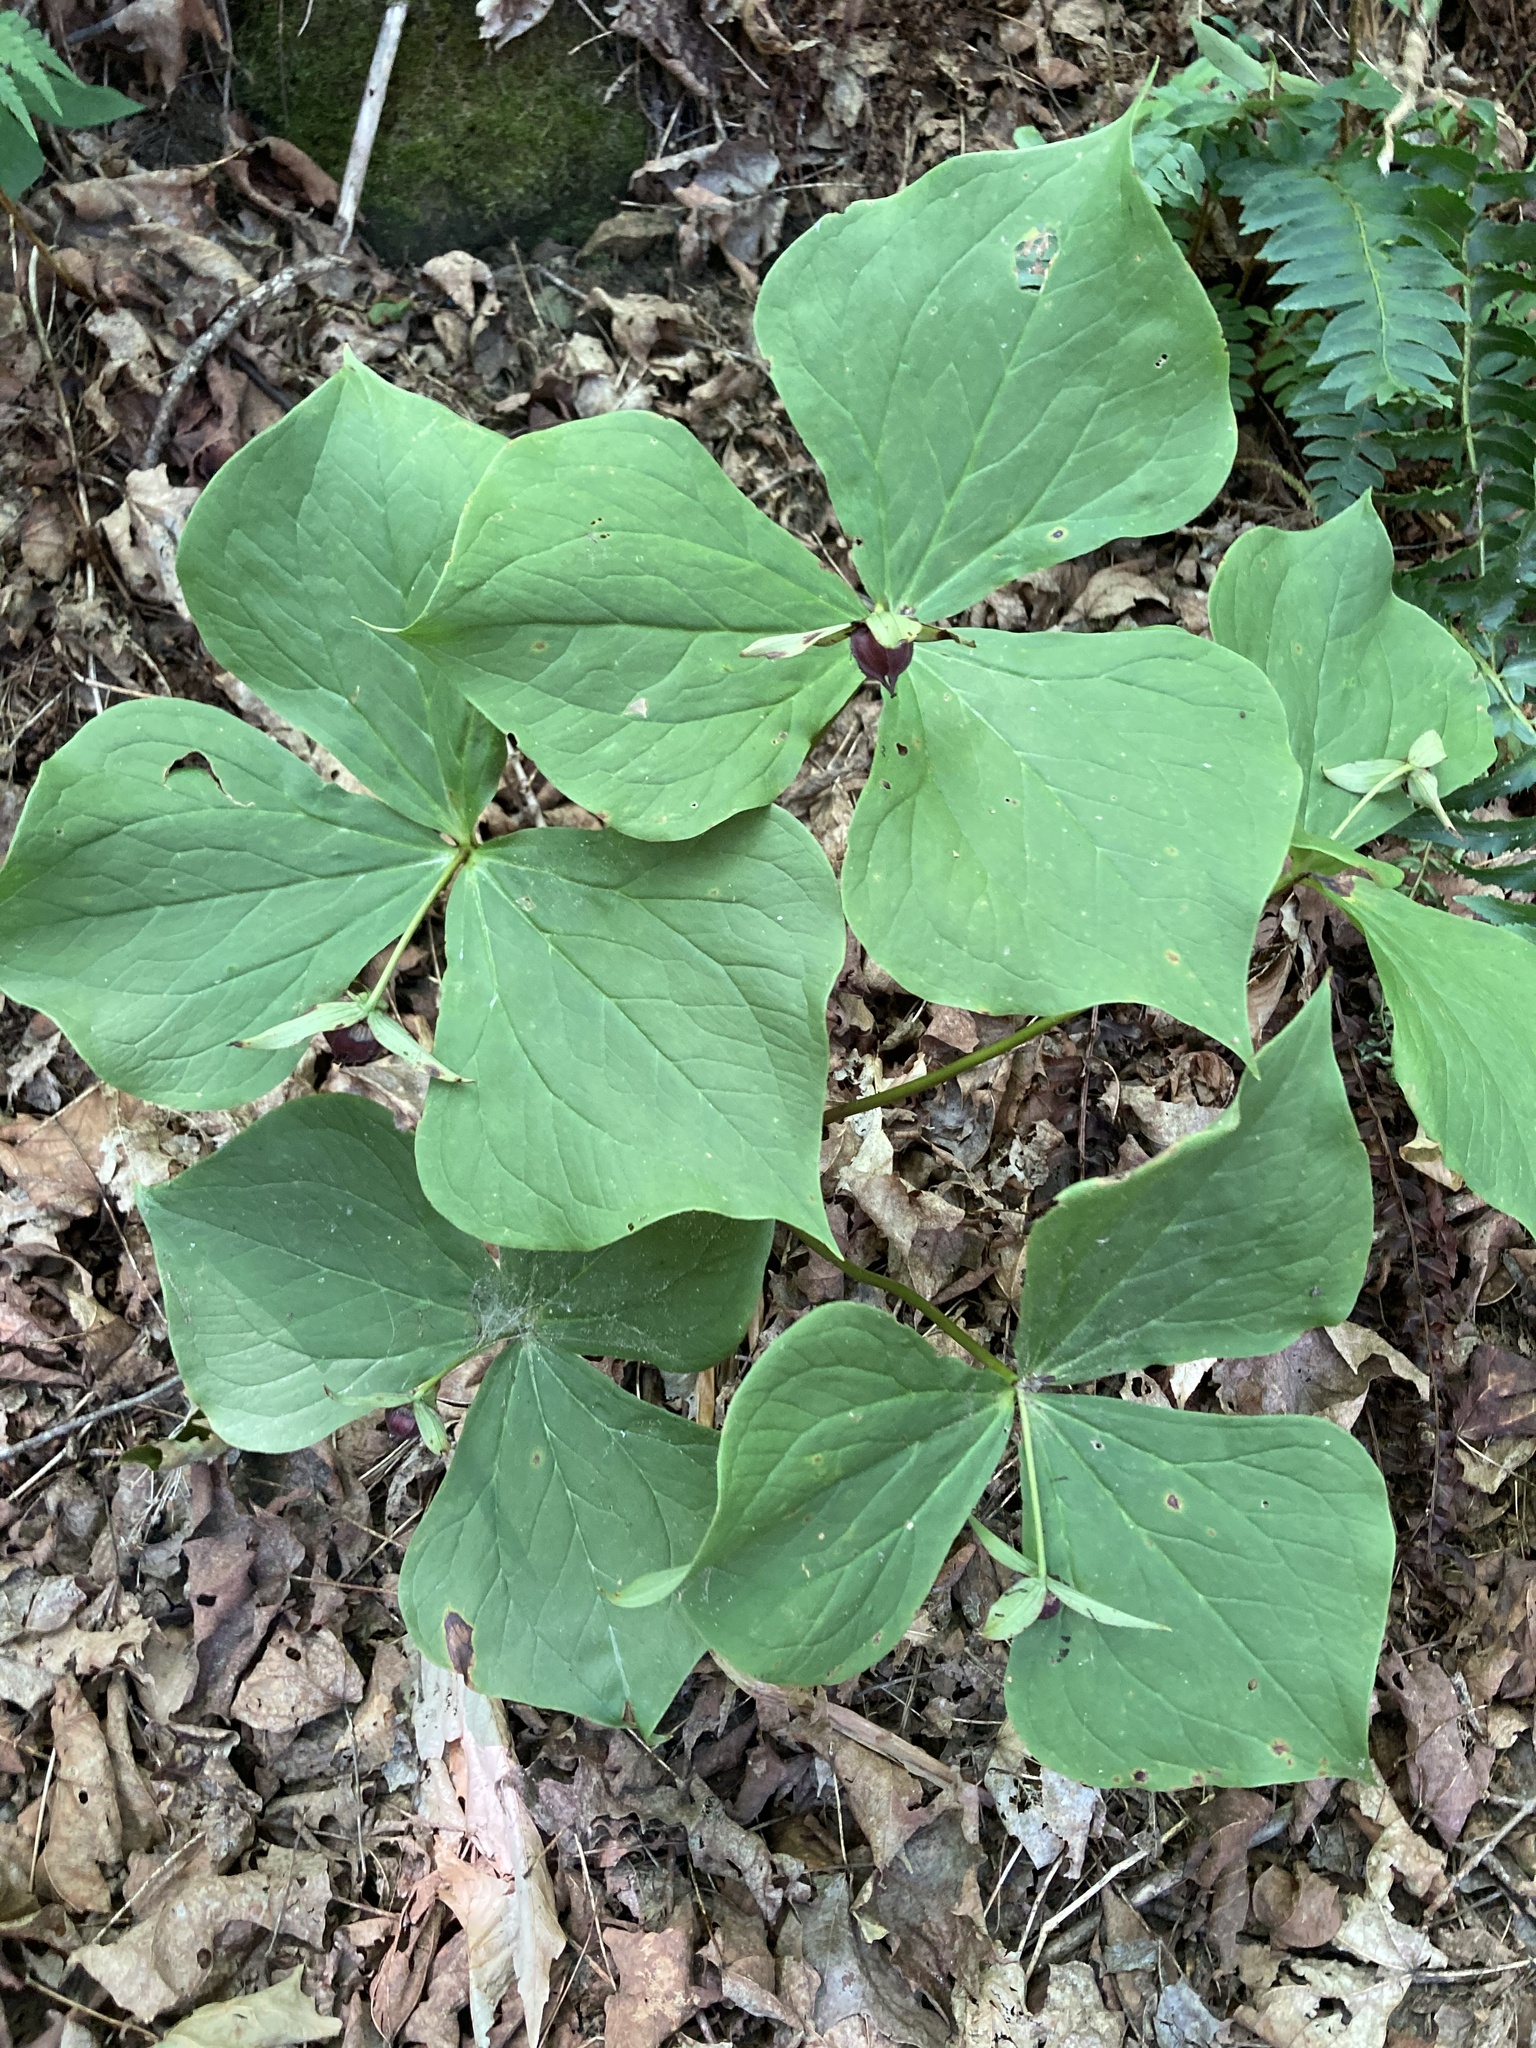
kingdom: Plantae
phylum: Tracheophyta
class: Liliopsida
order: Liliales
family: Melanthiaceae
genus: Trillium
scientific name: Trillium erectum
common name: Purple trillium
